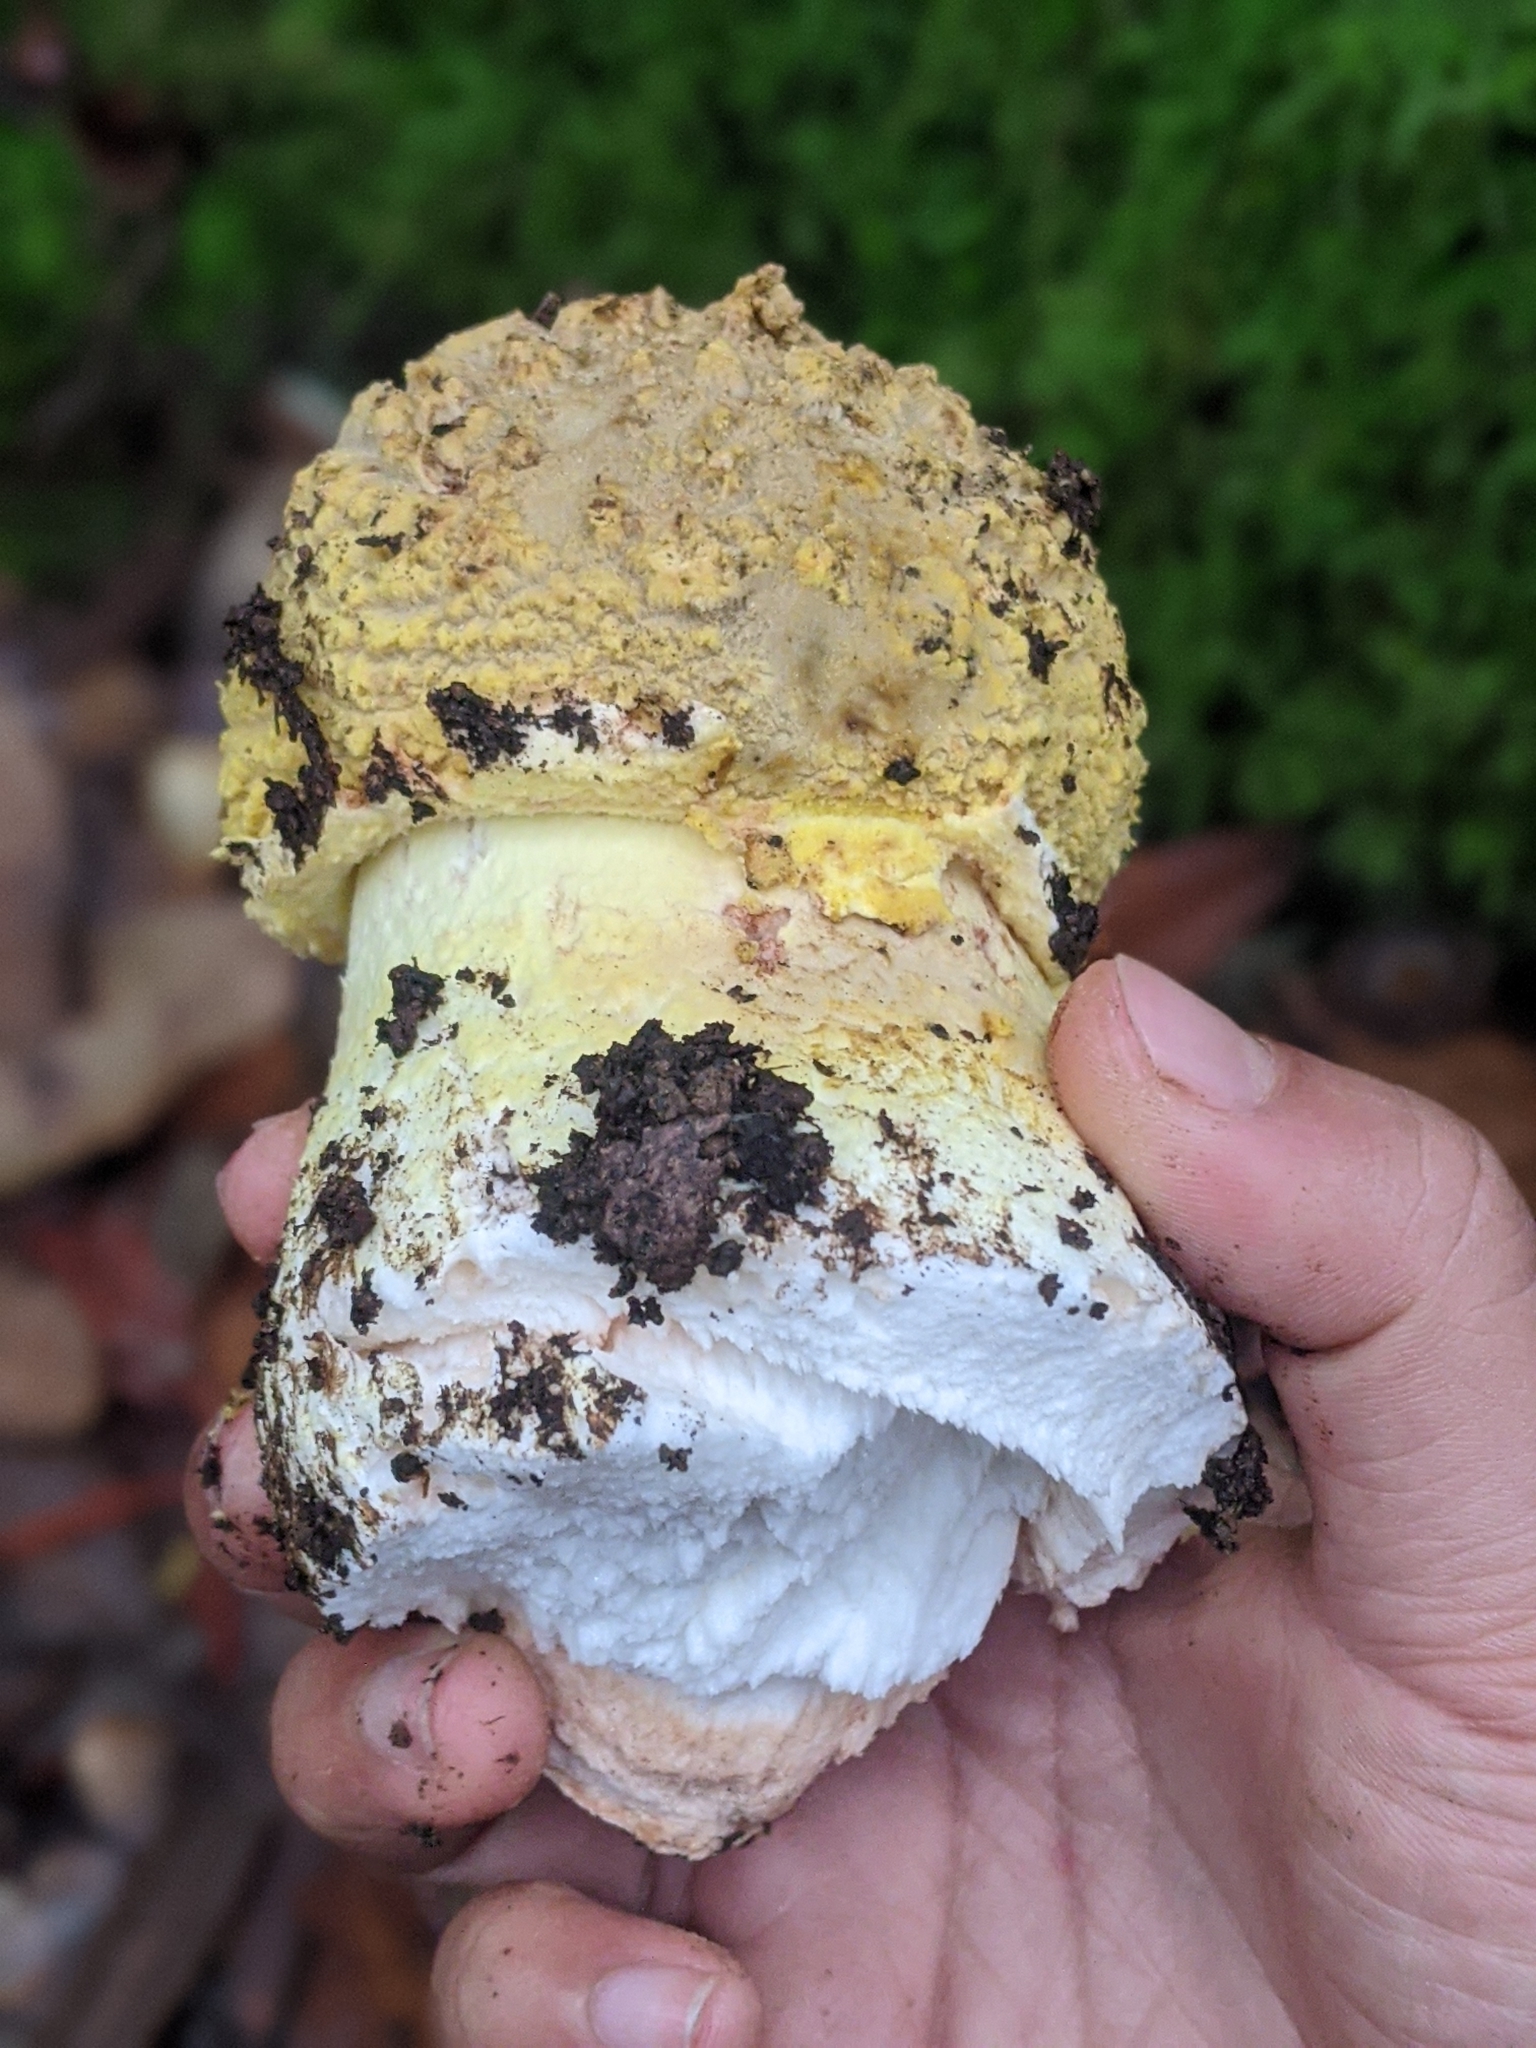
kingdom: Fungi
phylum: Basidiomycota
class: Agaricomycetes
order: Agaricales
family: Amanitaceae
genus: Amanita
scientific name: Amanita augusta
